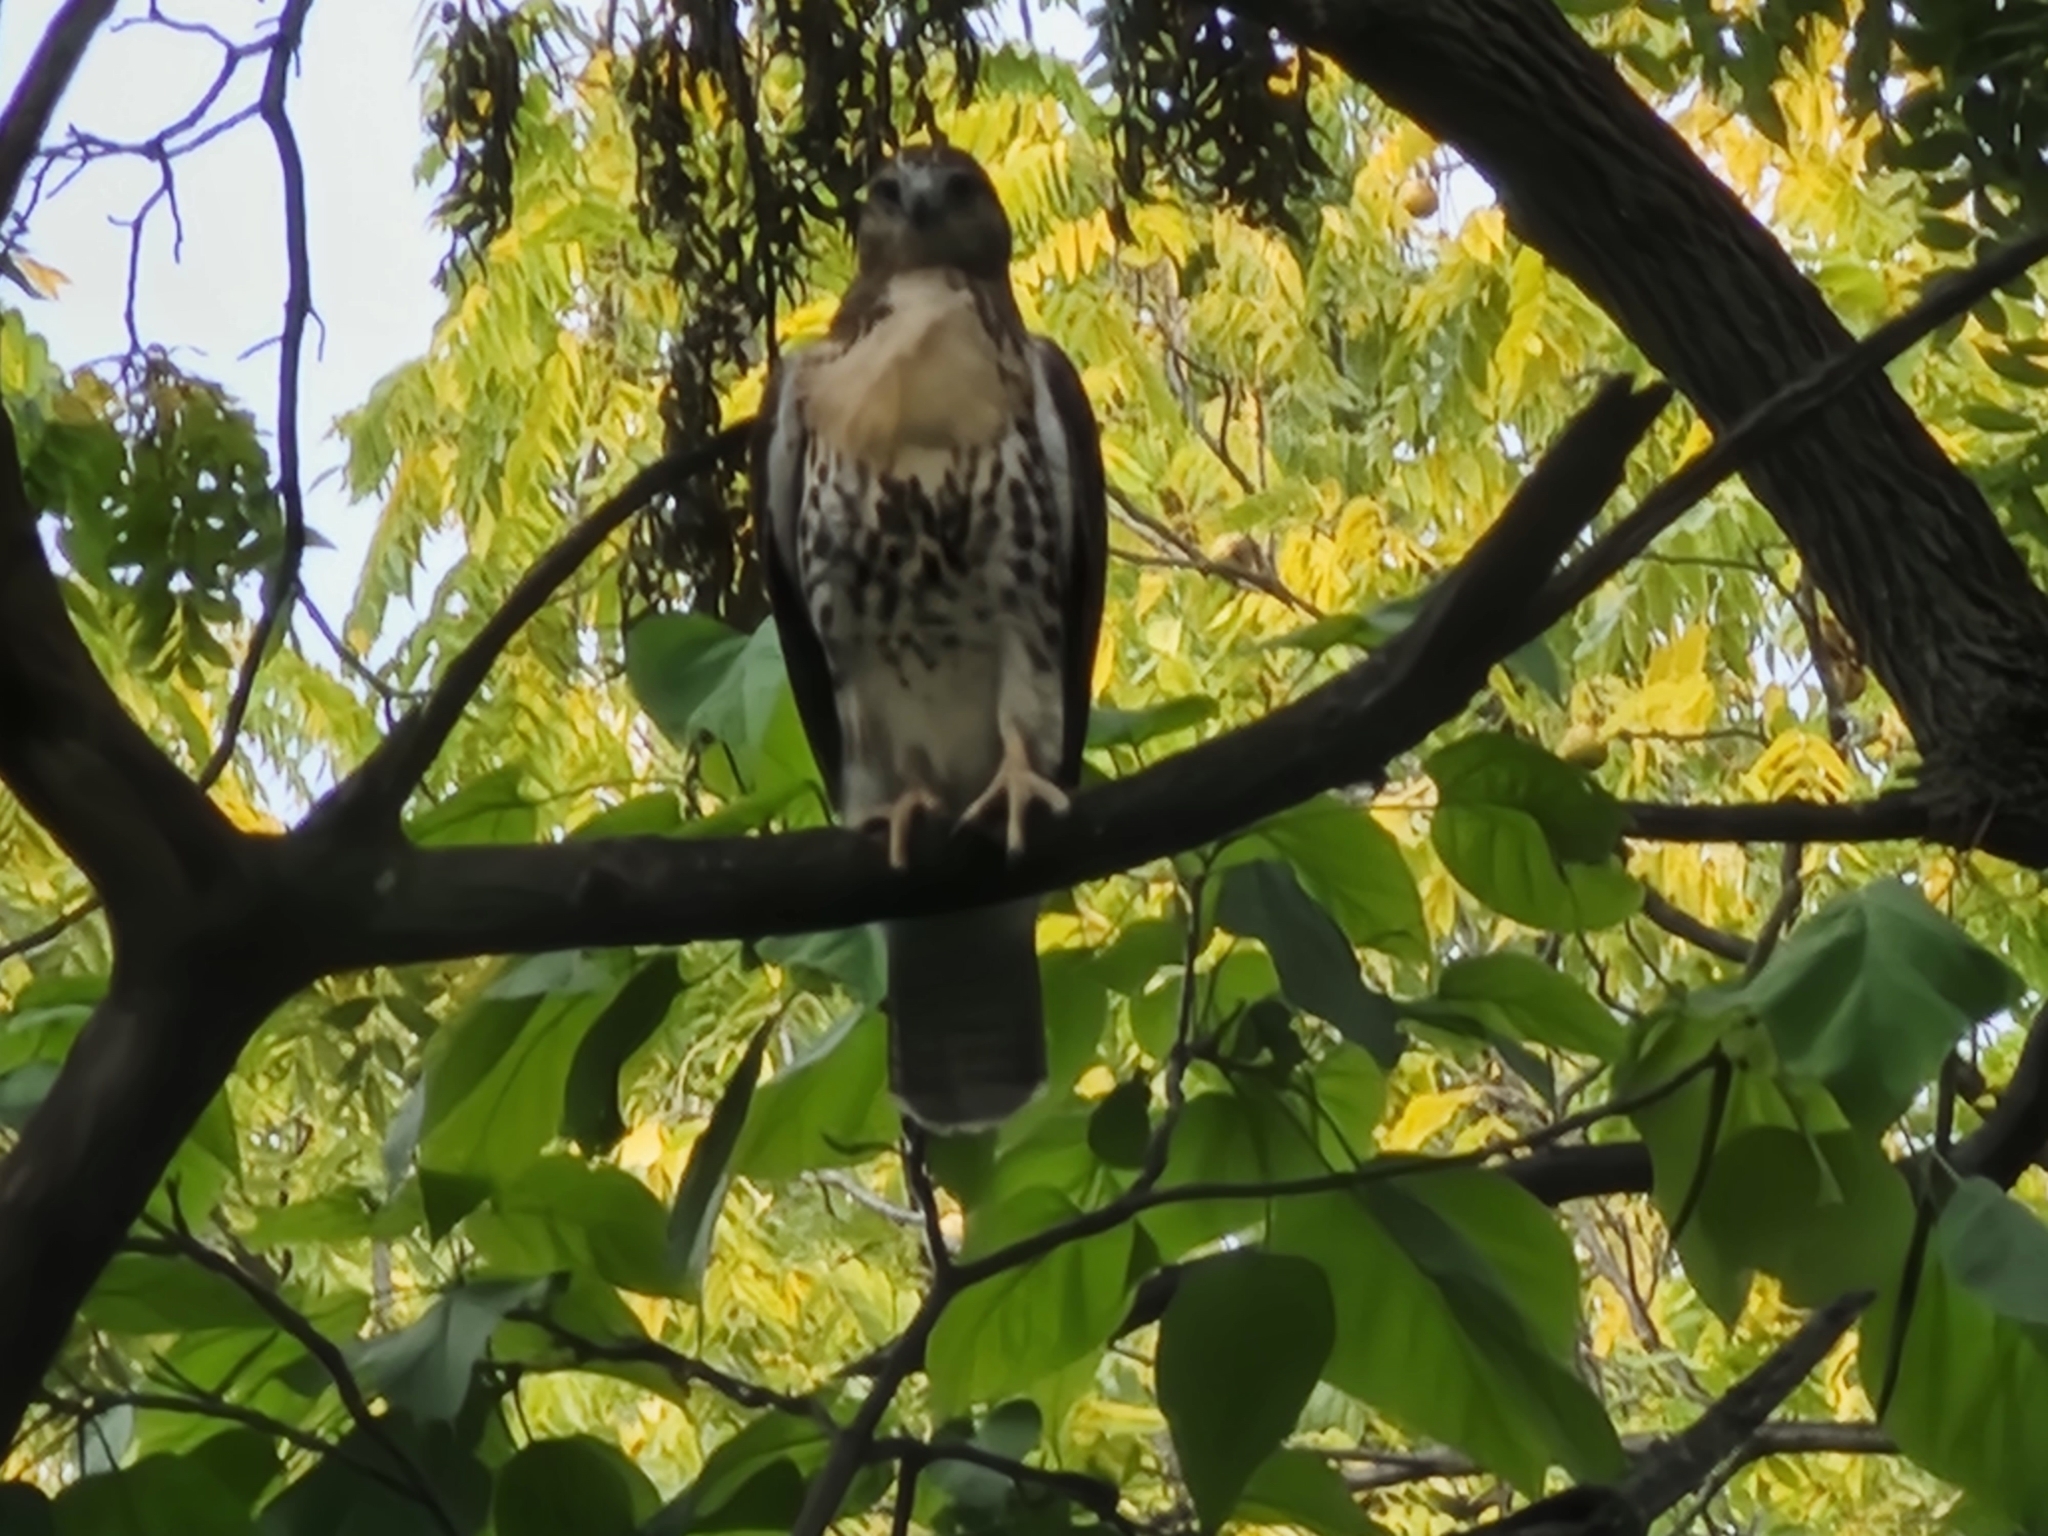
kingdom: Animalia
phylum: Chordata
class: Aves
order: Accipitriformes
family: Accipitridae
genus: Buteo
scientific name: Buteo jamaicensis
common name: Red-tailed hawk
